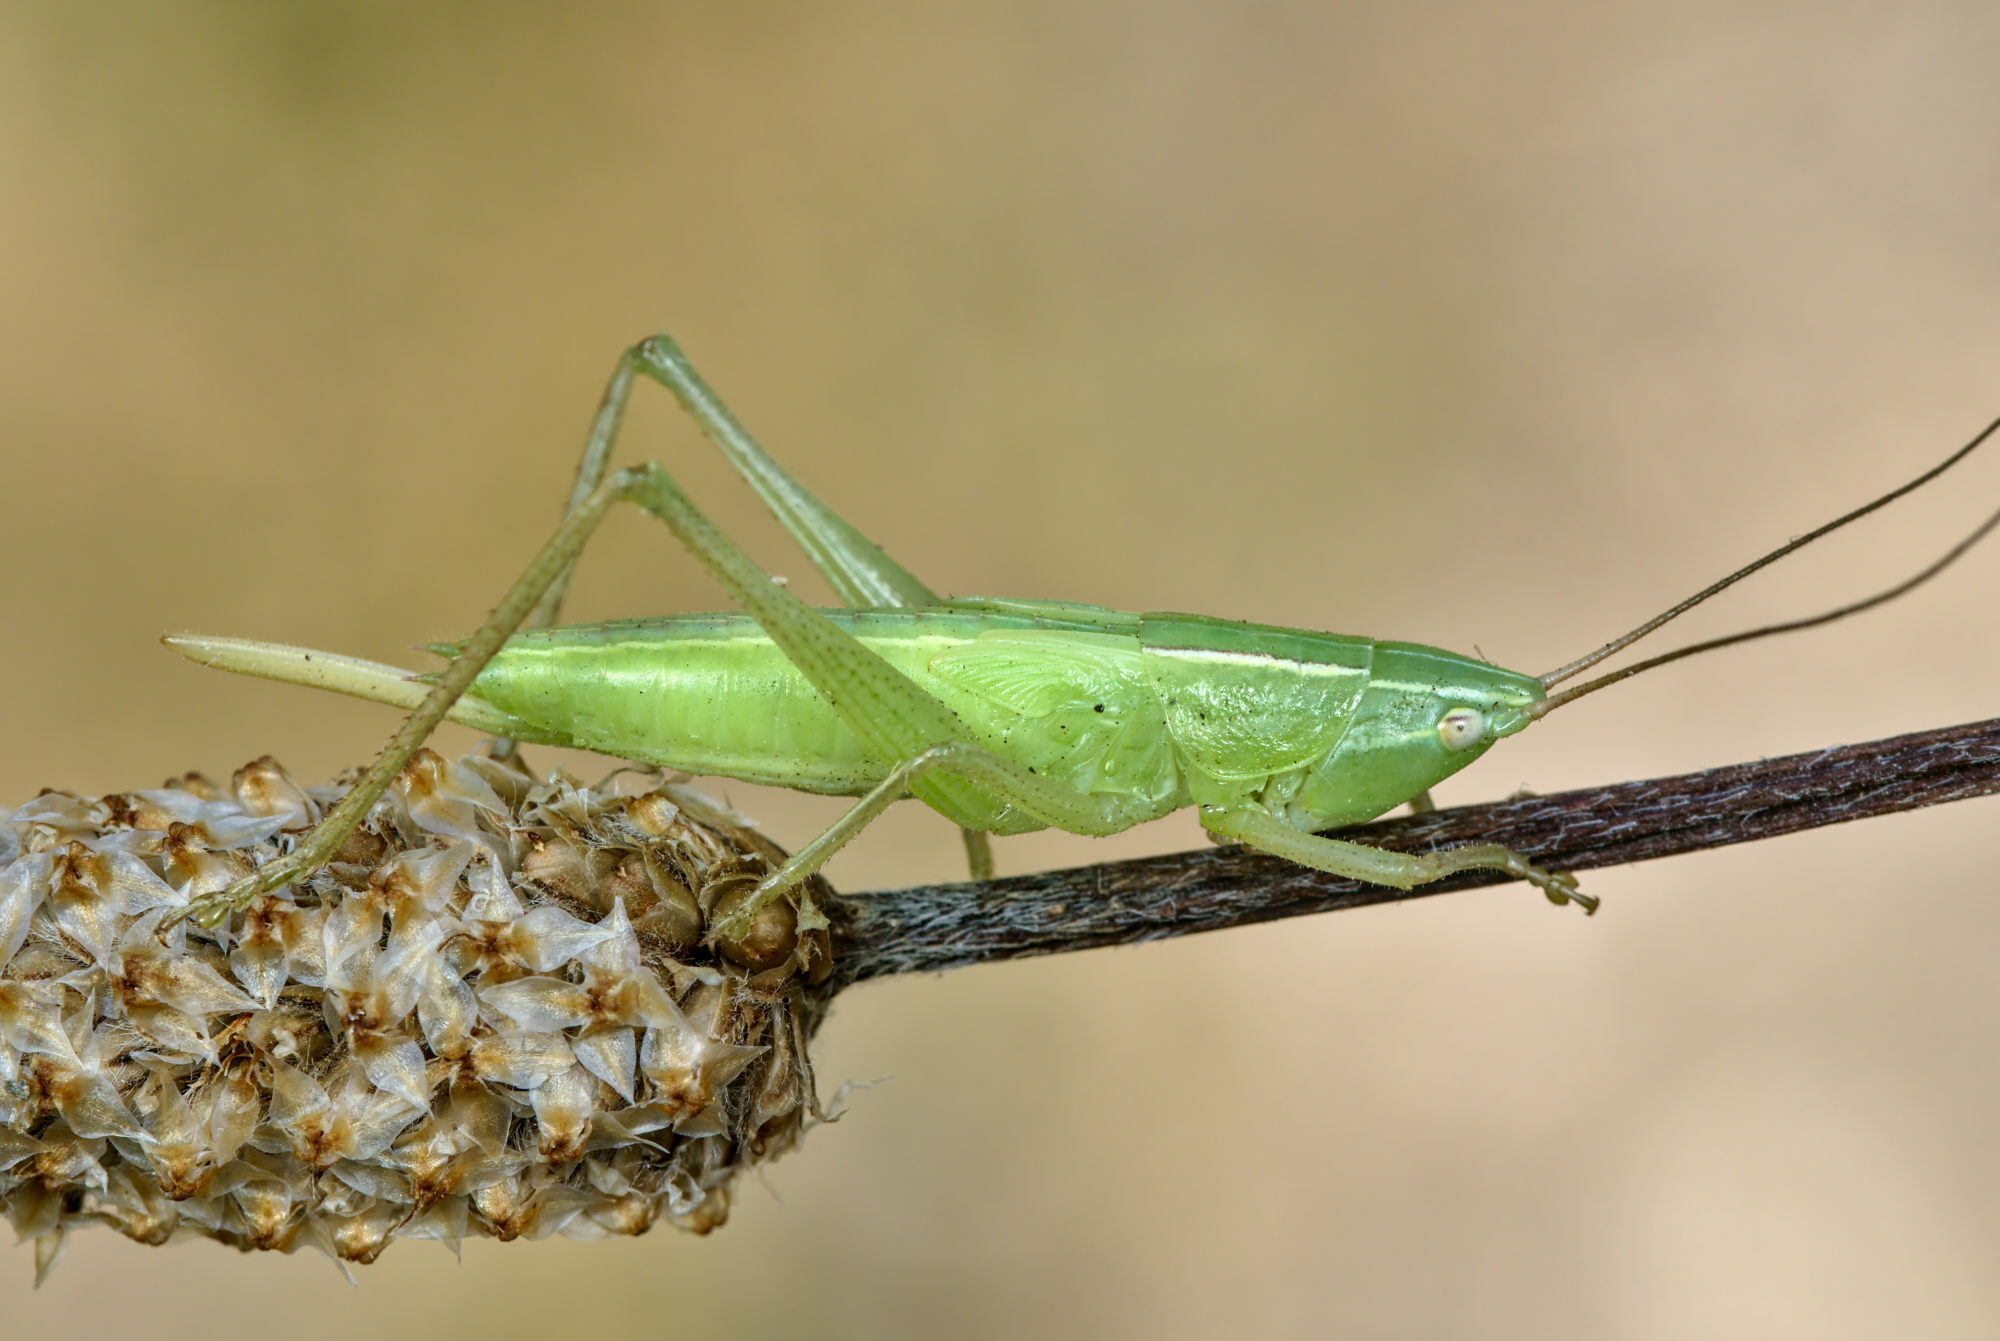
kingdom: Animalia
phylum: Arthropoda
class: Insecta
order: Orthoptera
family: Tettigoniidae
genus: Ruspolia
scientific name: Ruspolia nitidula
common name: Large conehead
